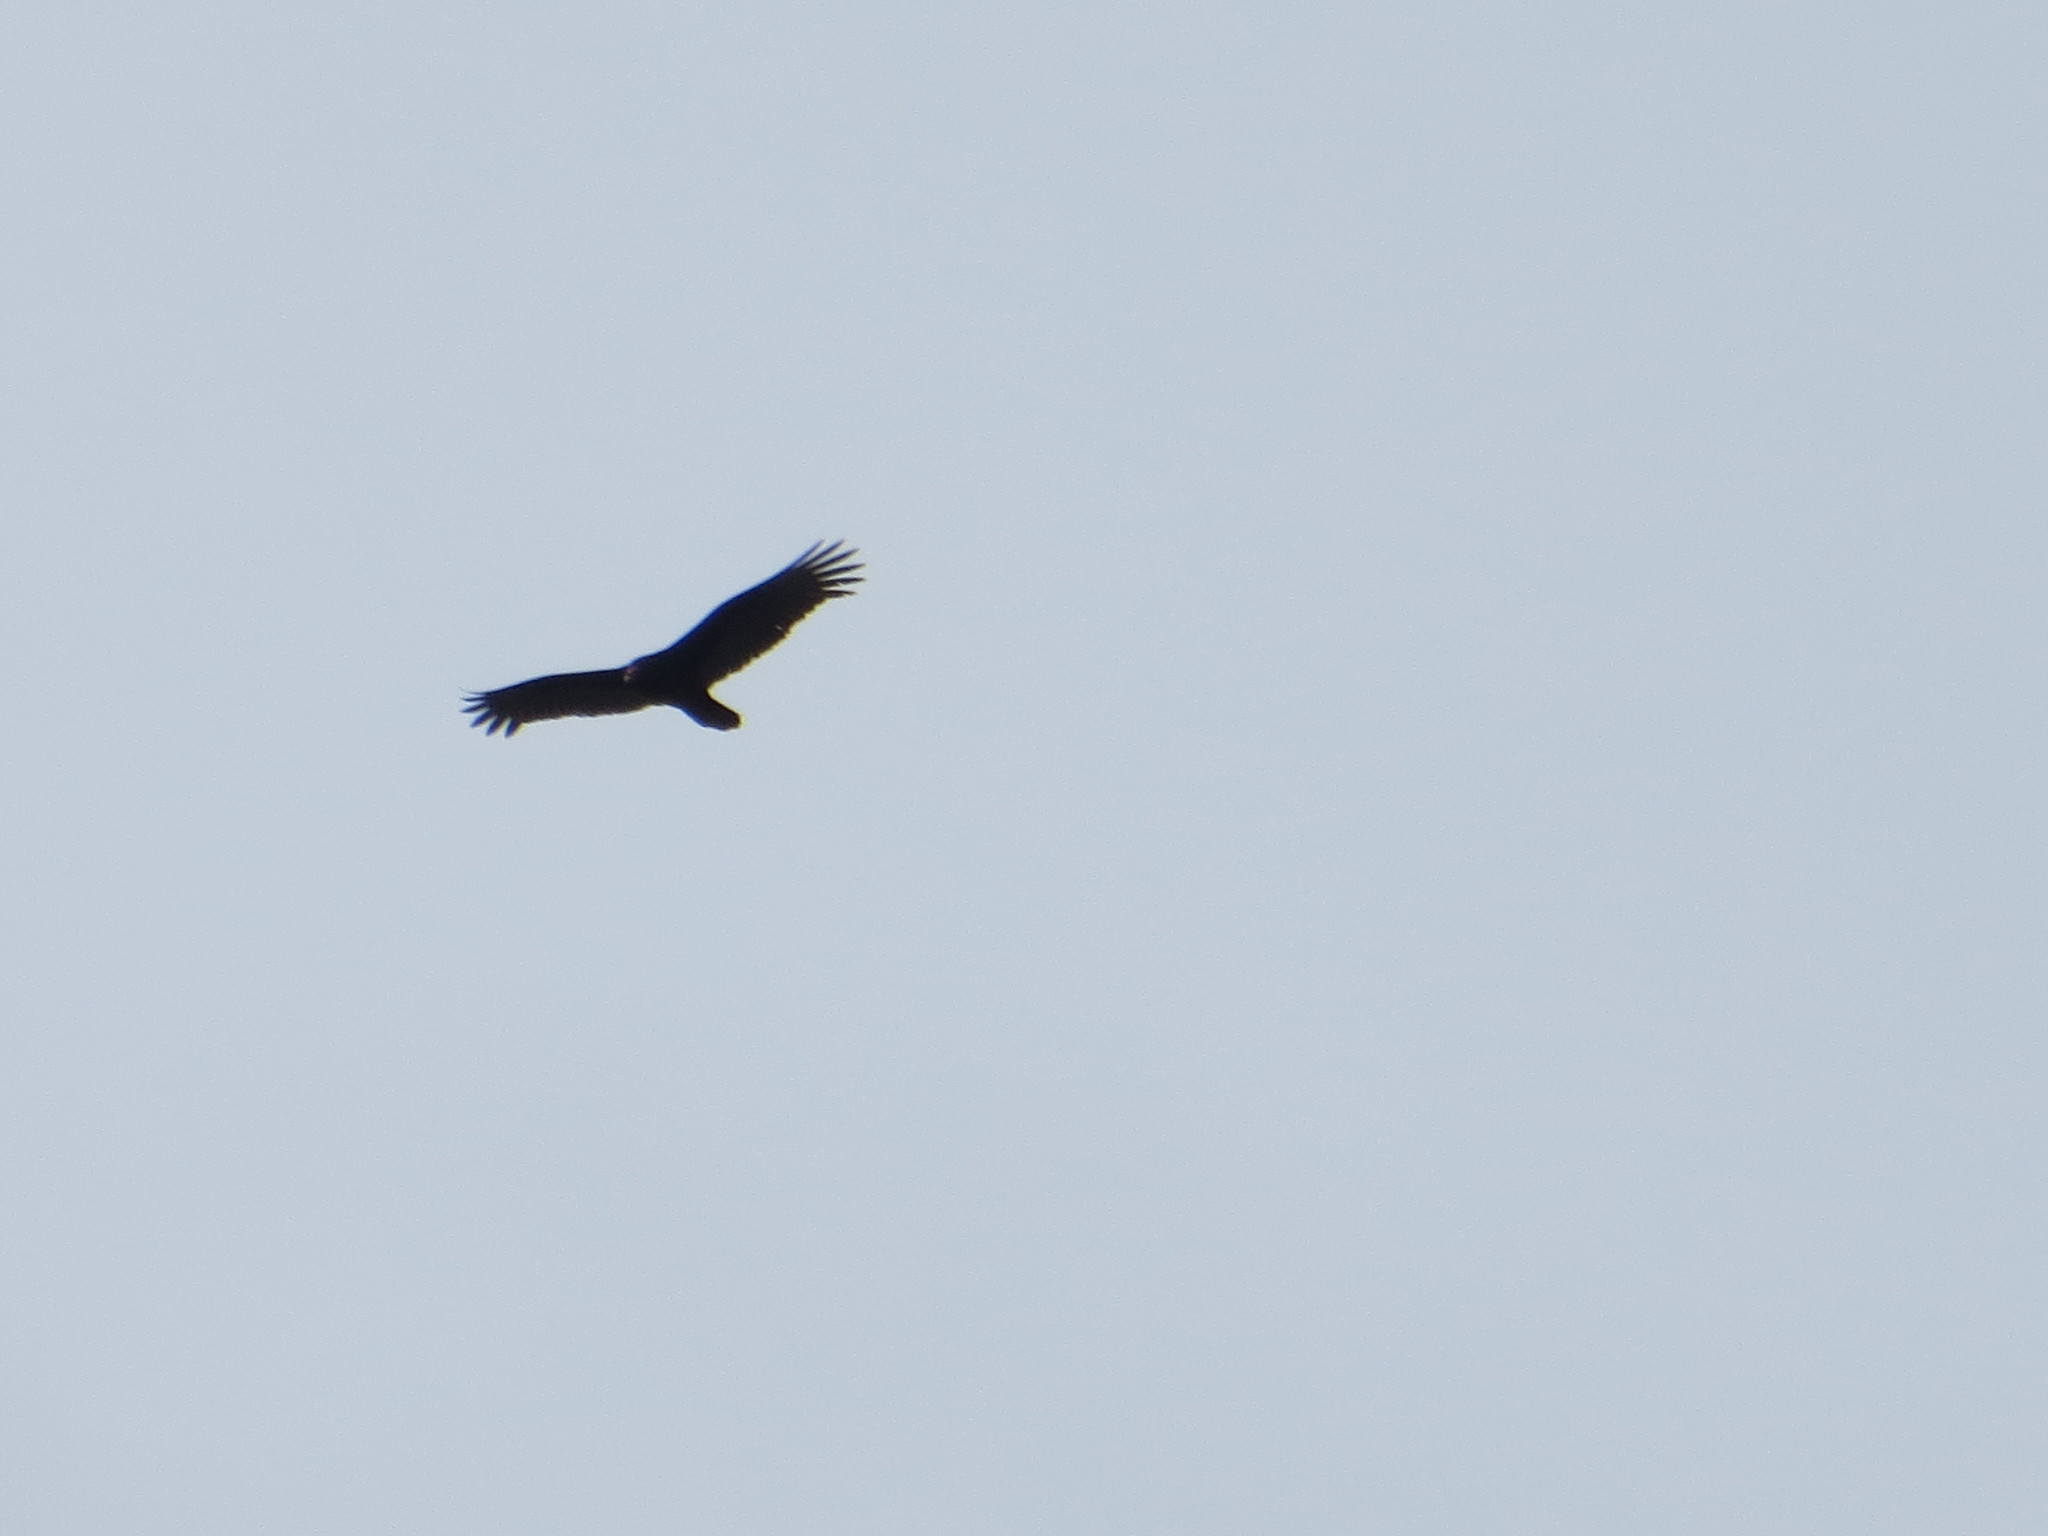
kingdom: Animalia
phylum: Chordata
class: Aves
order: Accipitriformes
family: Cathartidae
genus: Cathartes
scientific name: Cathartes aura
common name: Turkey vulture
